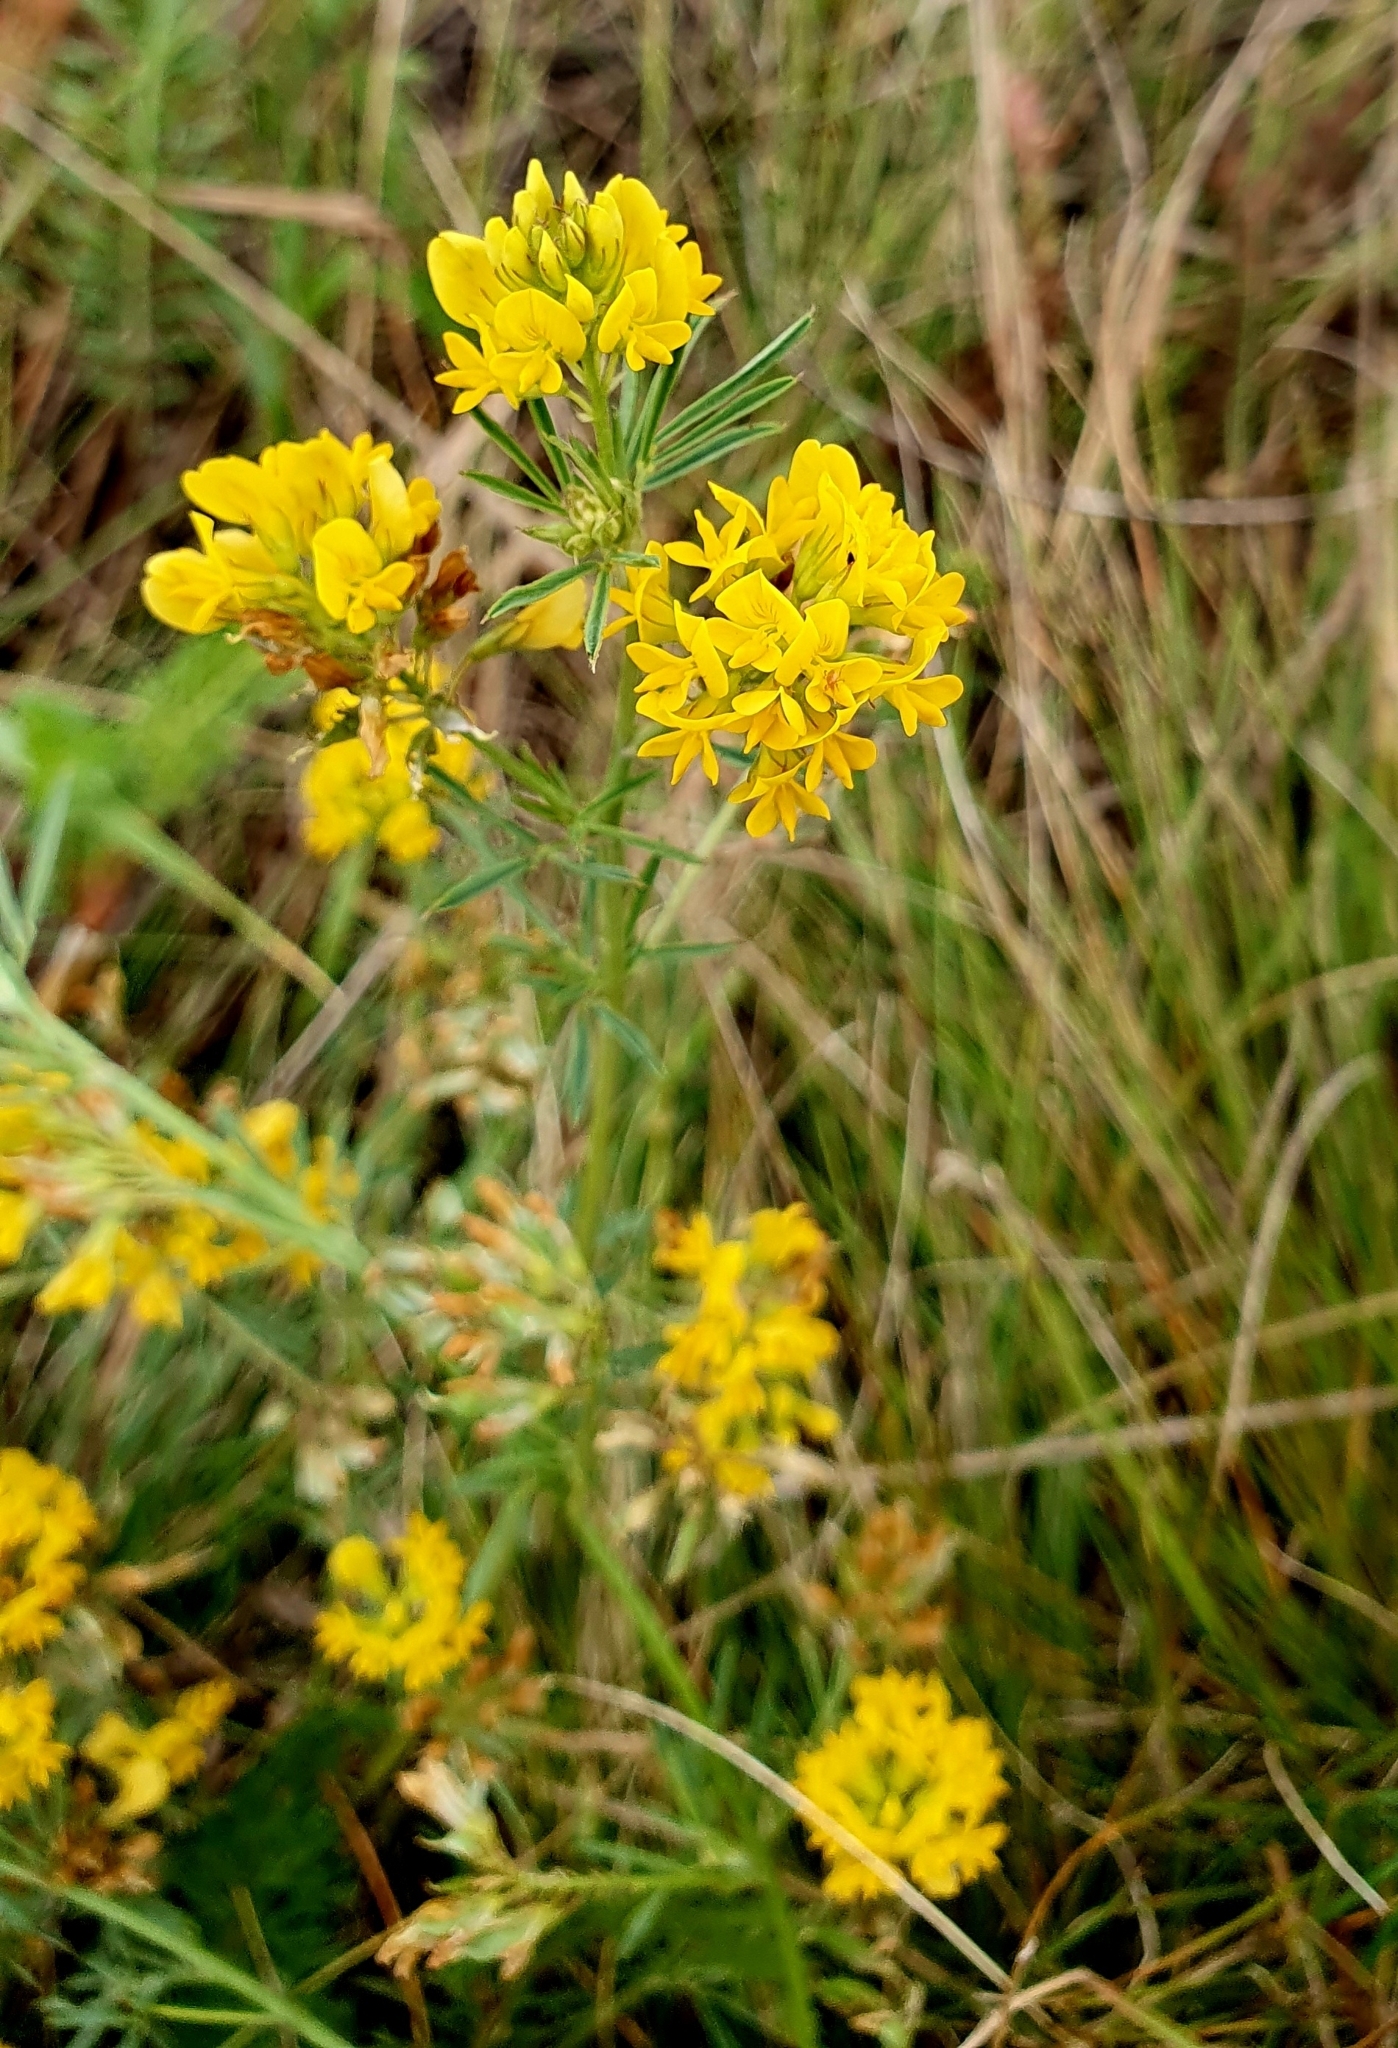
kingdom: Plantae
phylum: Tracheophyta
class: Magnoliopsida
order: Fabales
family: Fabaceae
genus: Medicago
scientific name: Medicago falcata
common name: Sickle medick
